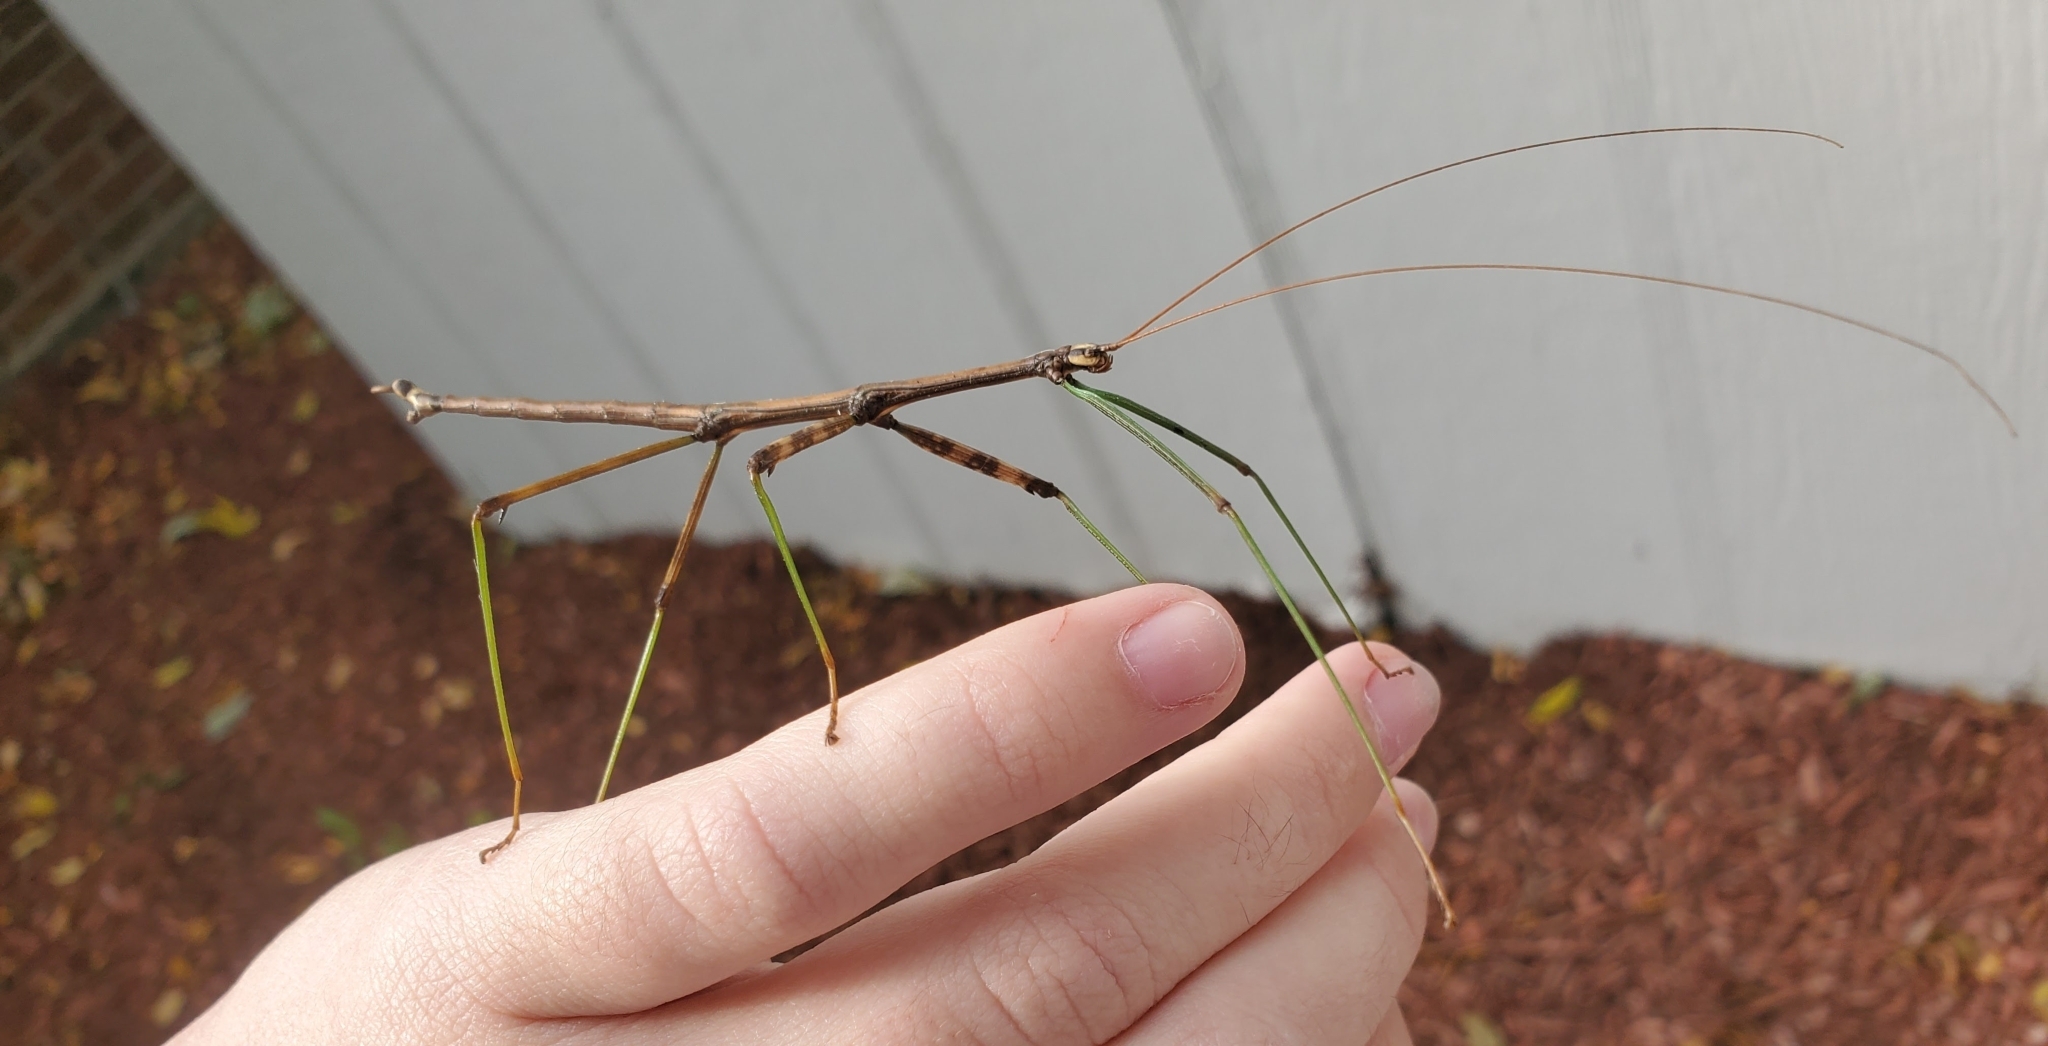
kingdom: Animalia
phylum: Arthropoda
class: Insecta
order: Phasmida
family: Diapheromeridae
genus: Diapheromera
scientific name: Diapheromera femorata
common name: Common american walkingstick
